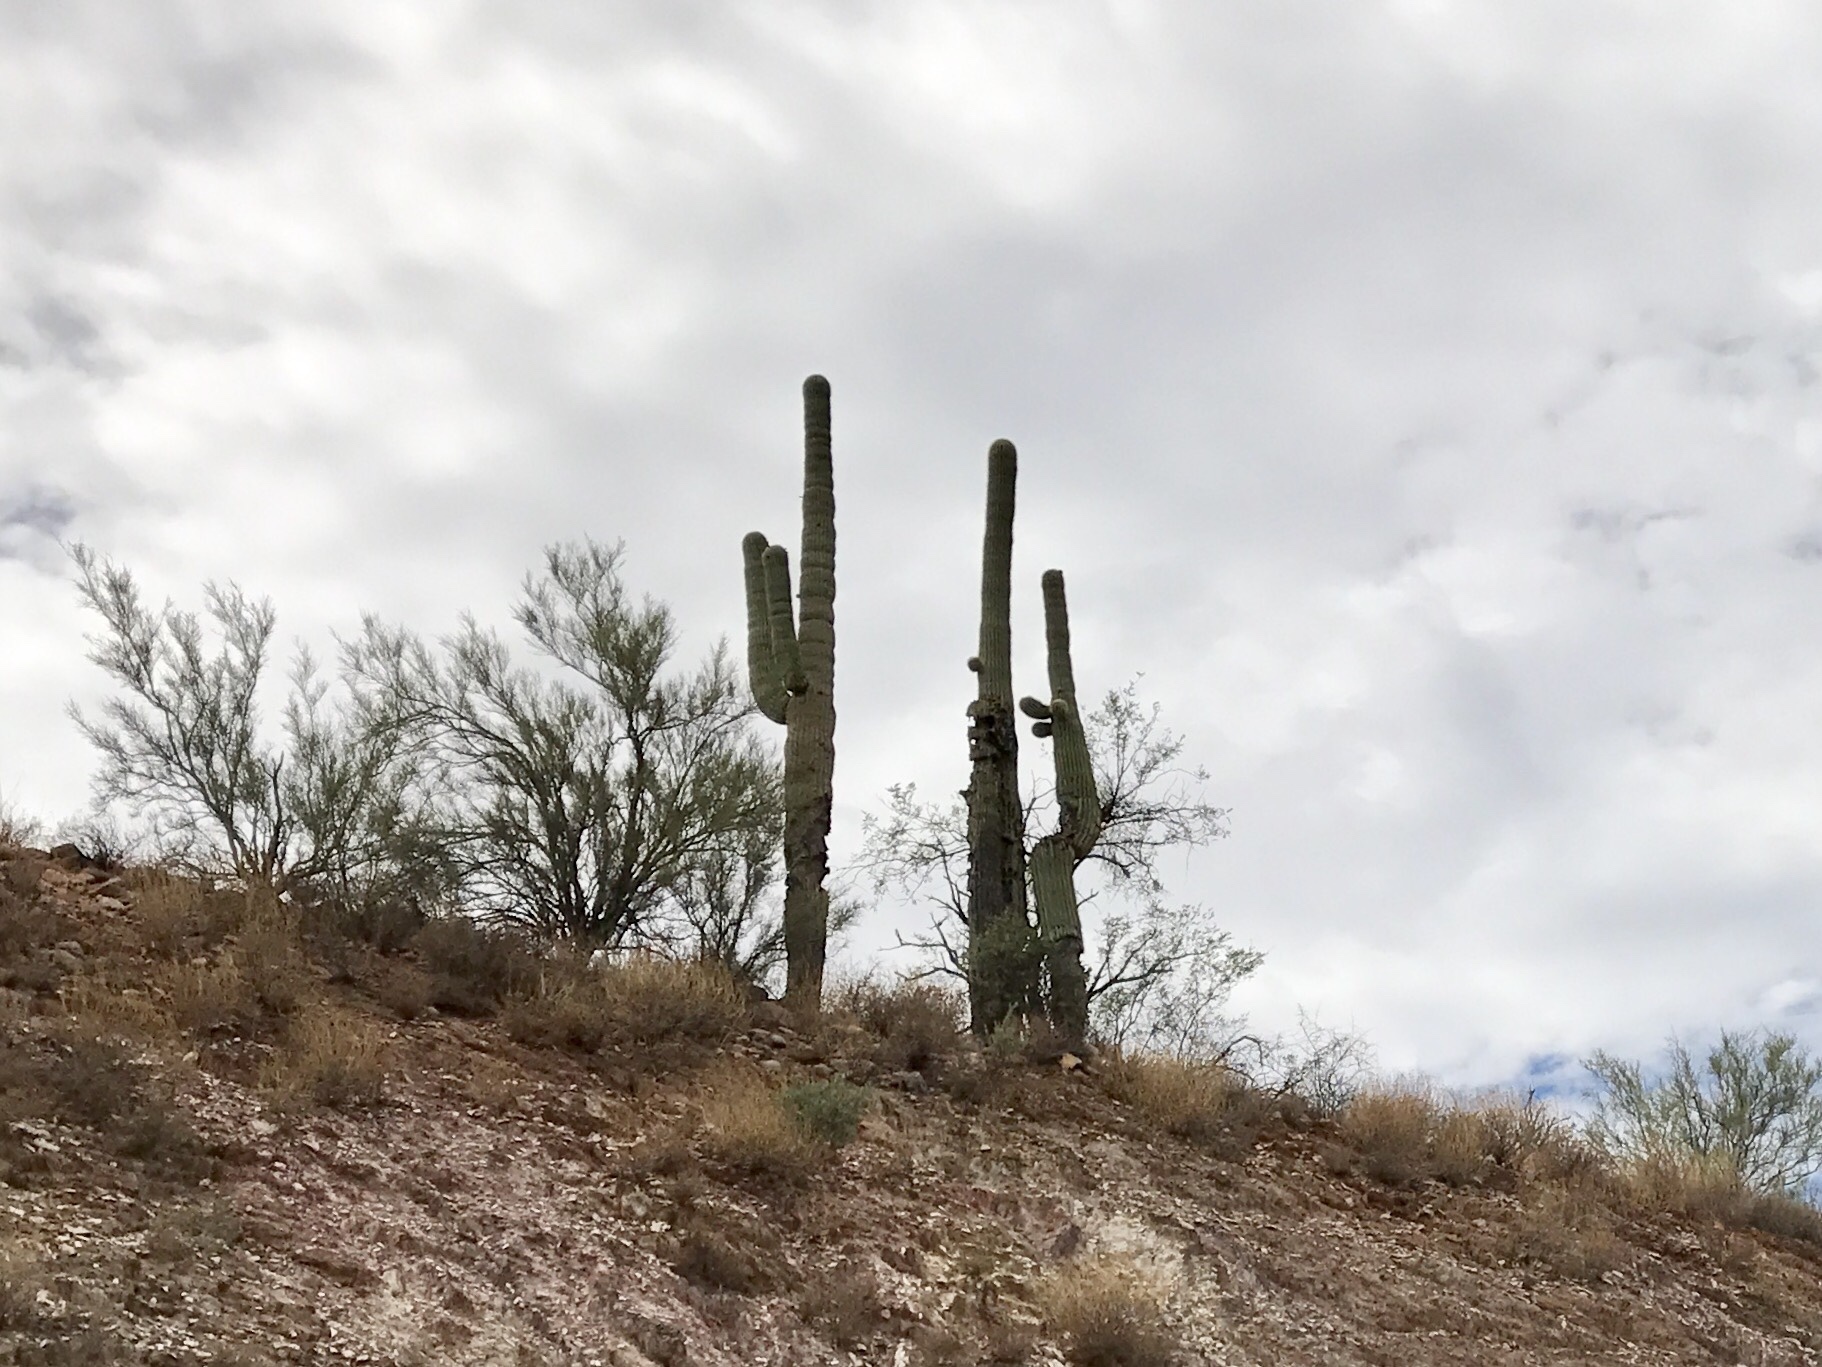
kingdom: Plantae
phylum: Tracheophyta
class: Magnoliopsida
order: Caryophyllales
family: Cactaceae
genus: Carnegiea
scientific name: Carnegiea gigantea
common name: Saguaro
